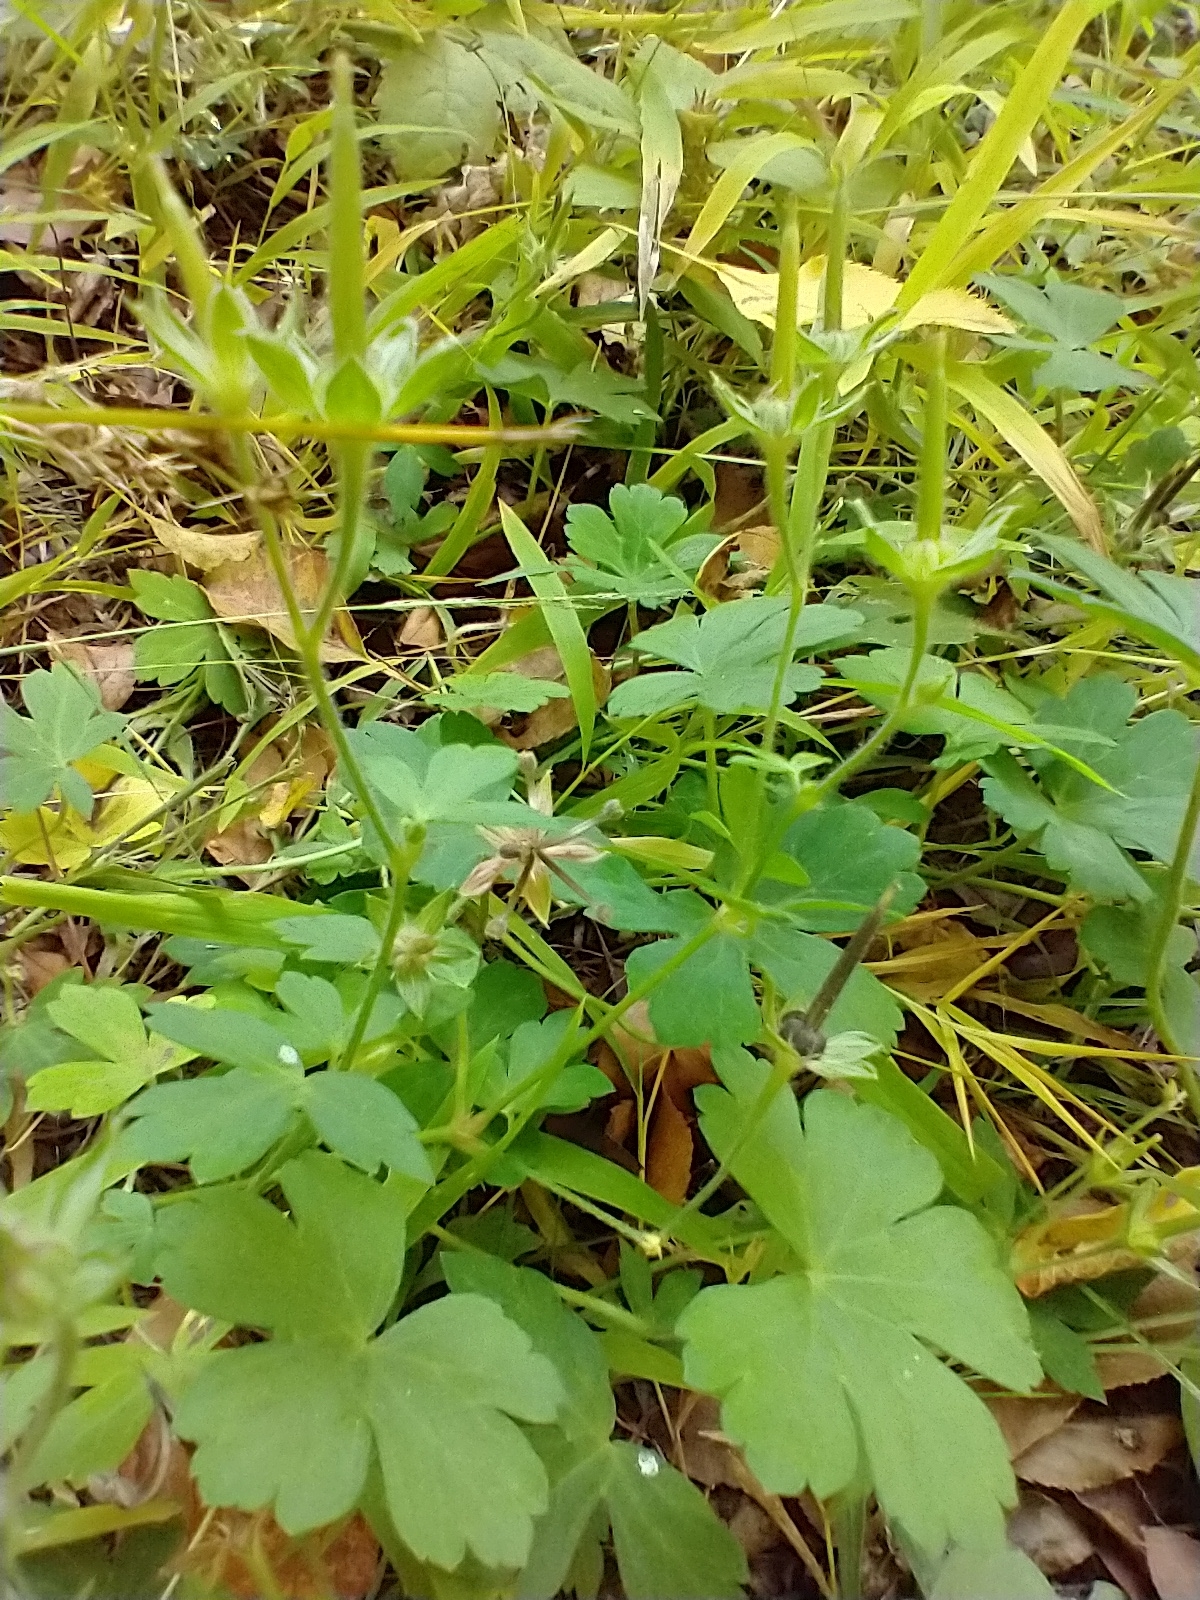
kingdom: Plantae
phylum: Tracheophyta
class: Magnoliopsida
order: Geraniales
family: Geraniaceae
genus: Geranium
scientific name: Geranium thunbergii
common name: Dewdrop crane's-bill
